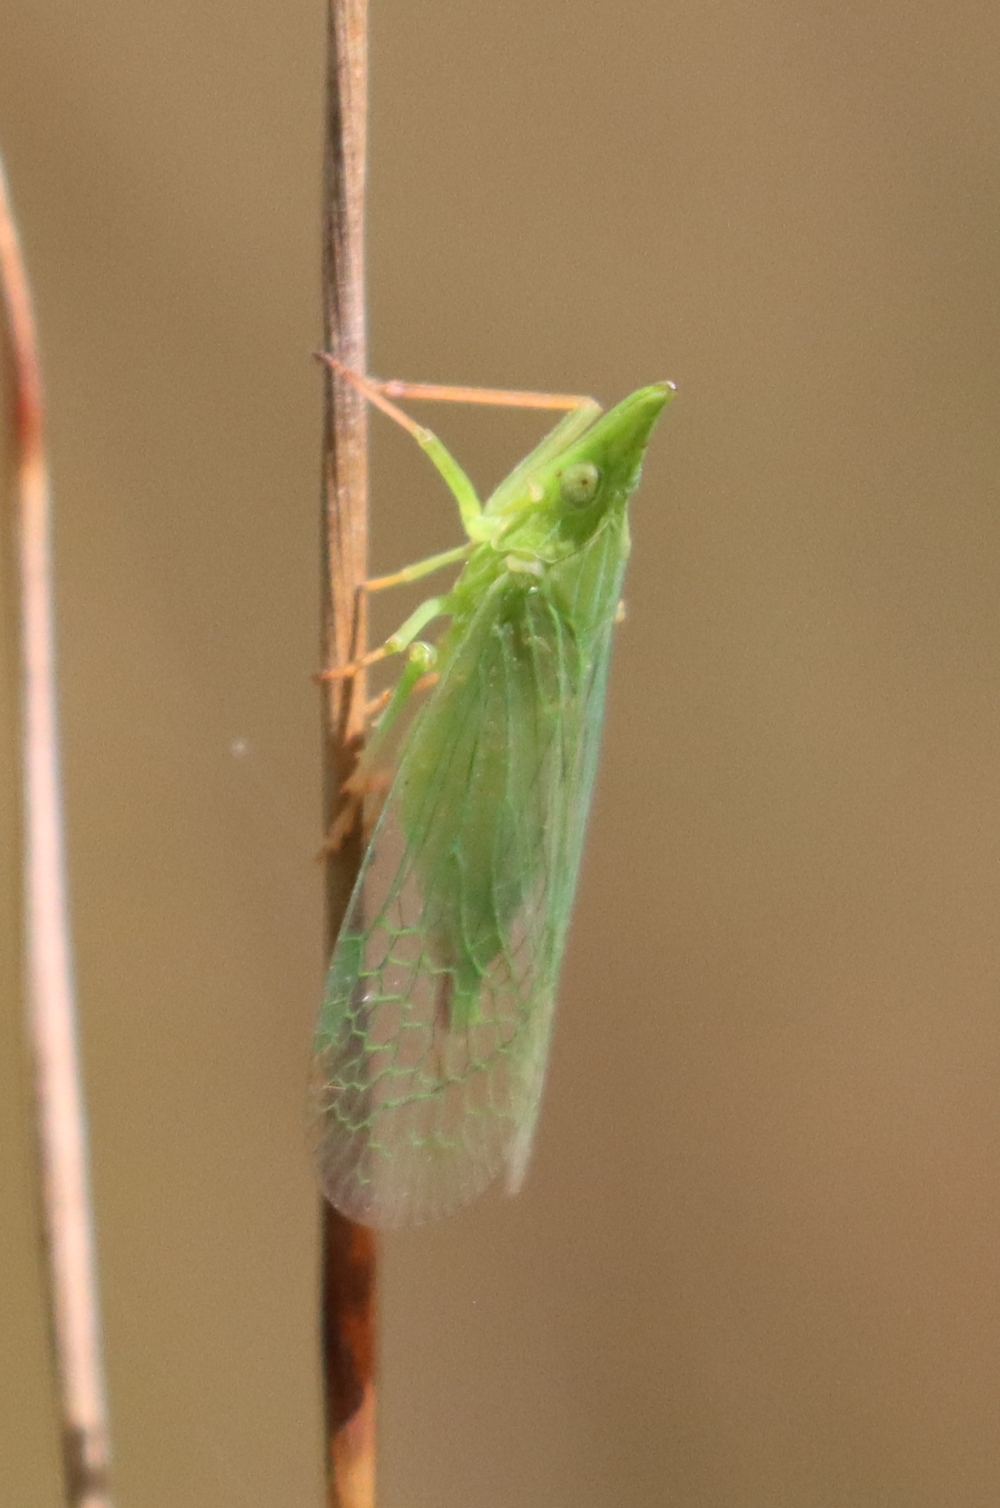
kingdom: Animalia
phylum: Arthropoda
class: Insecta
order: Hemiptera
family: Dictyopharidae
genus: Rhynchomitra
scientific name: Rhynchomitra microrhina
